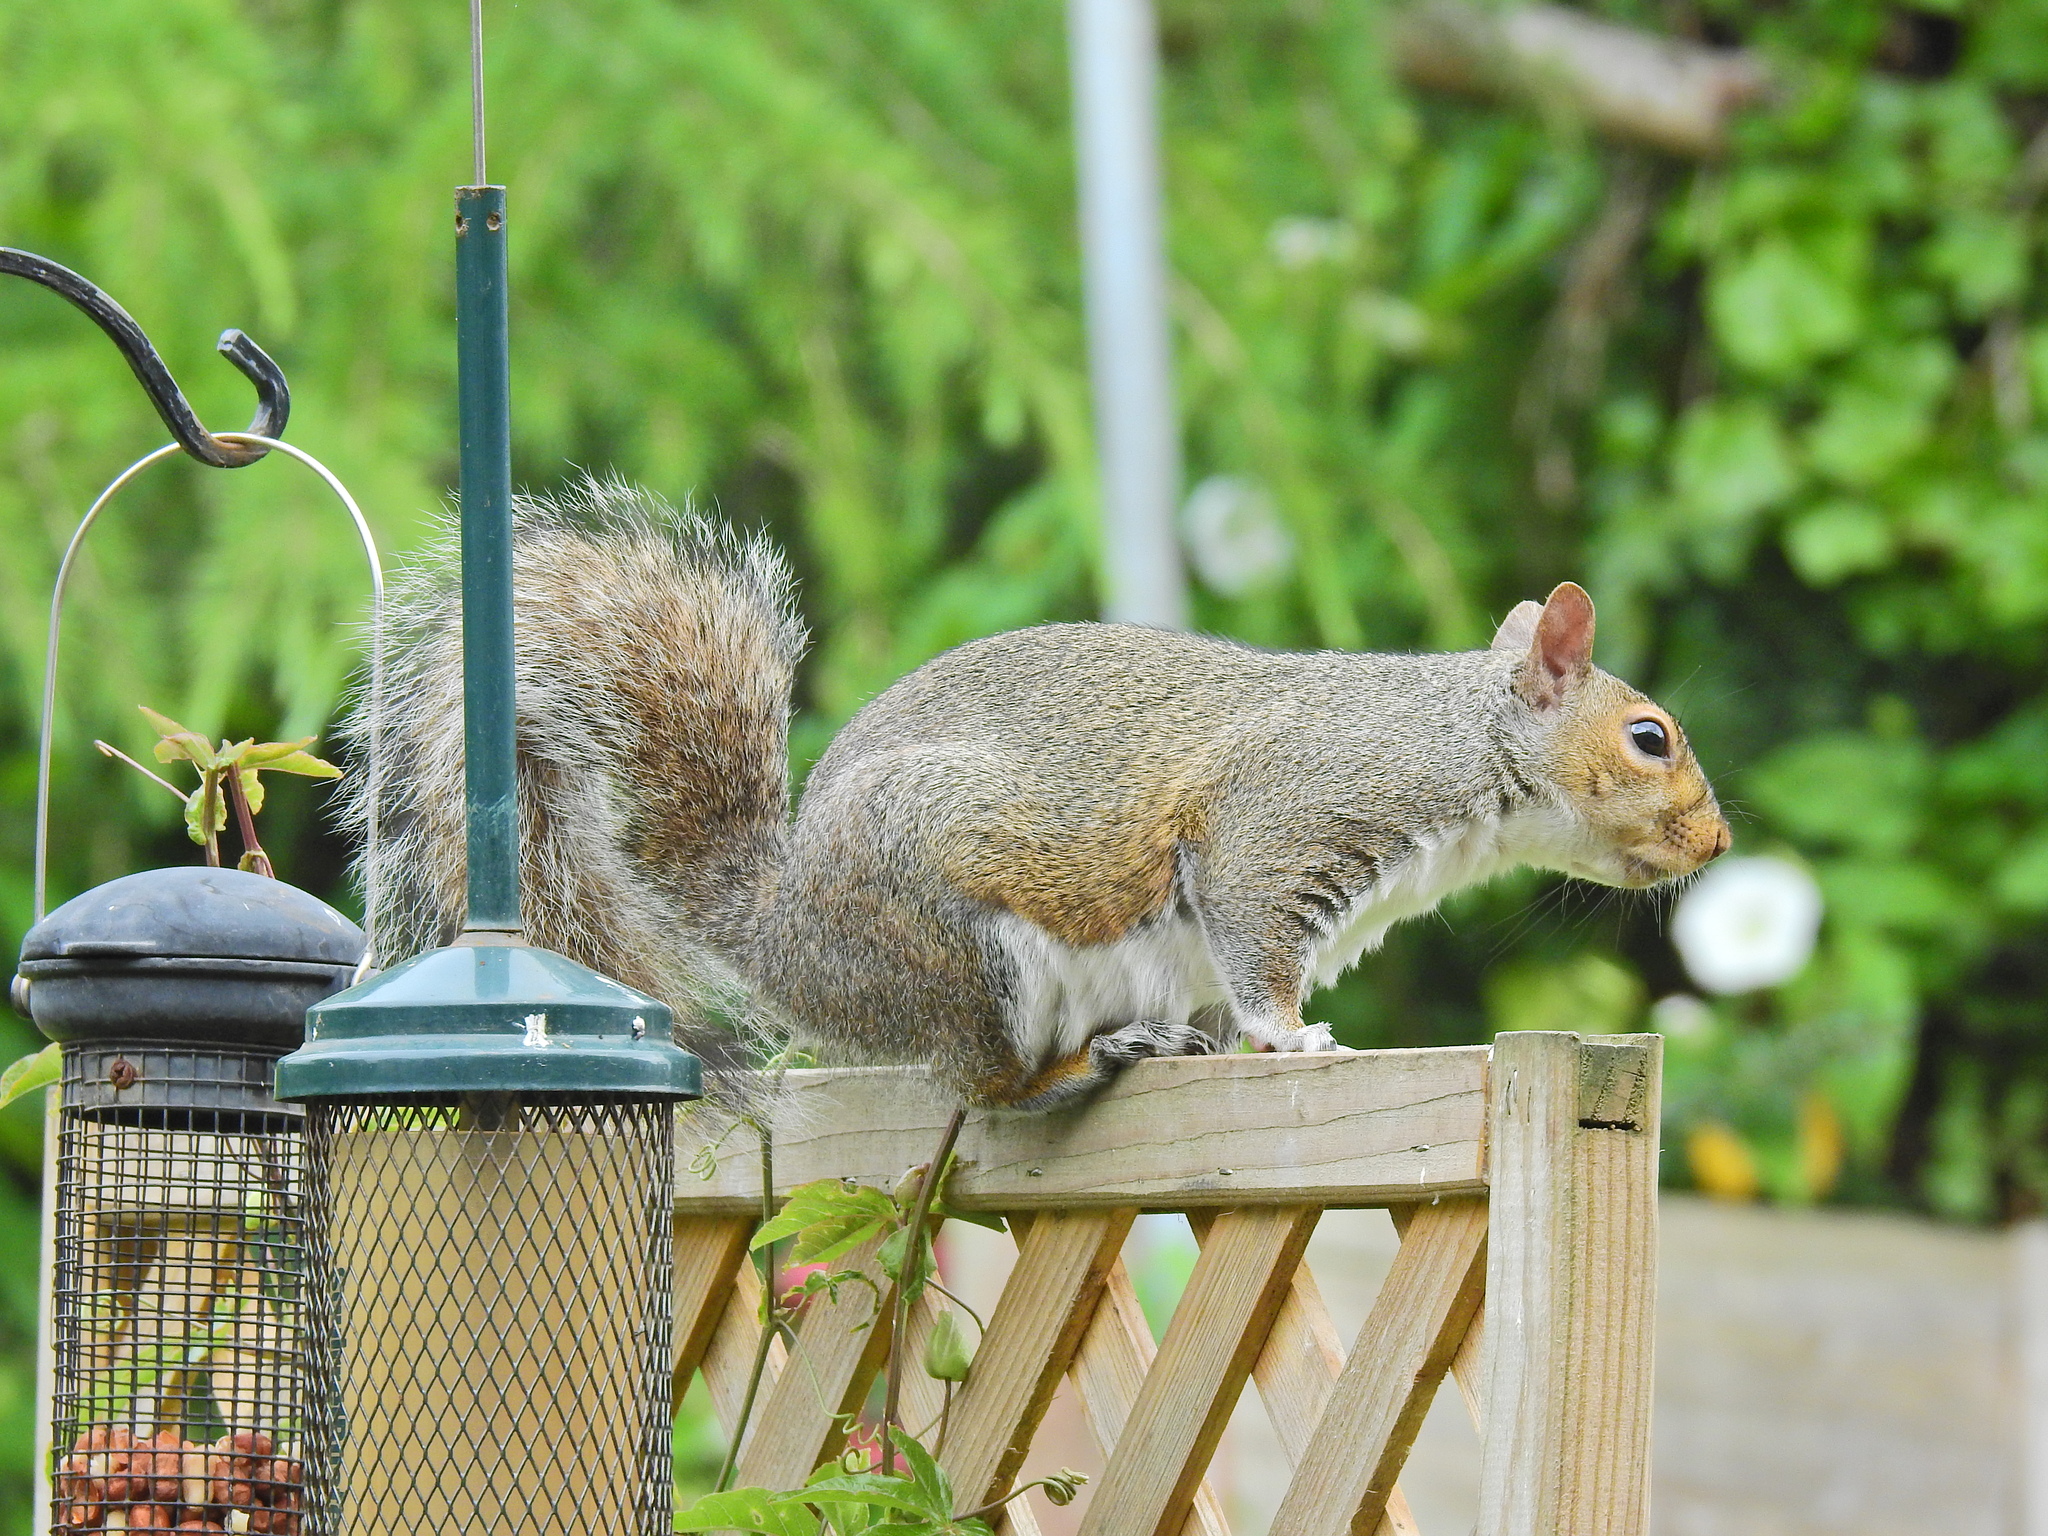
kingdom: Animalia
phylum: Chordata
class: Mammalia
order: Rodentia
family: Sciuridae
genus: Sciurus
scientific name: Sciurus carolinensis
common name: Eastern gray squirrel
